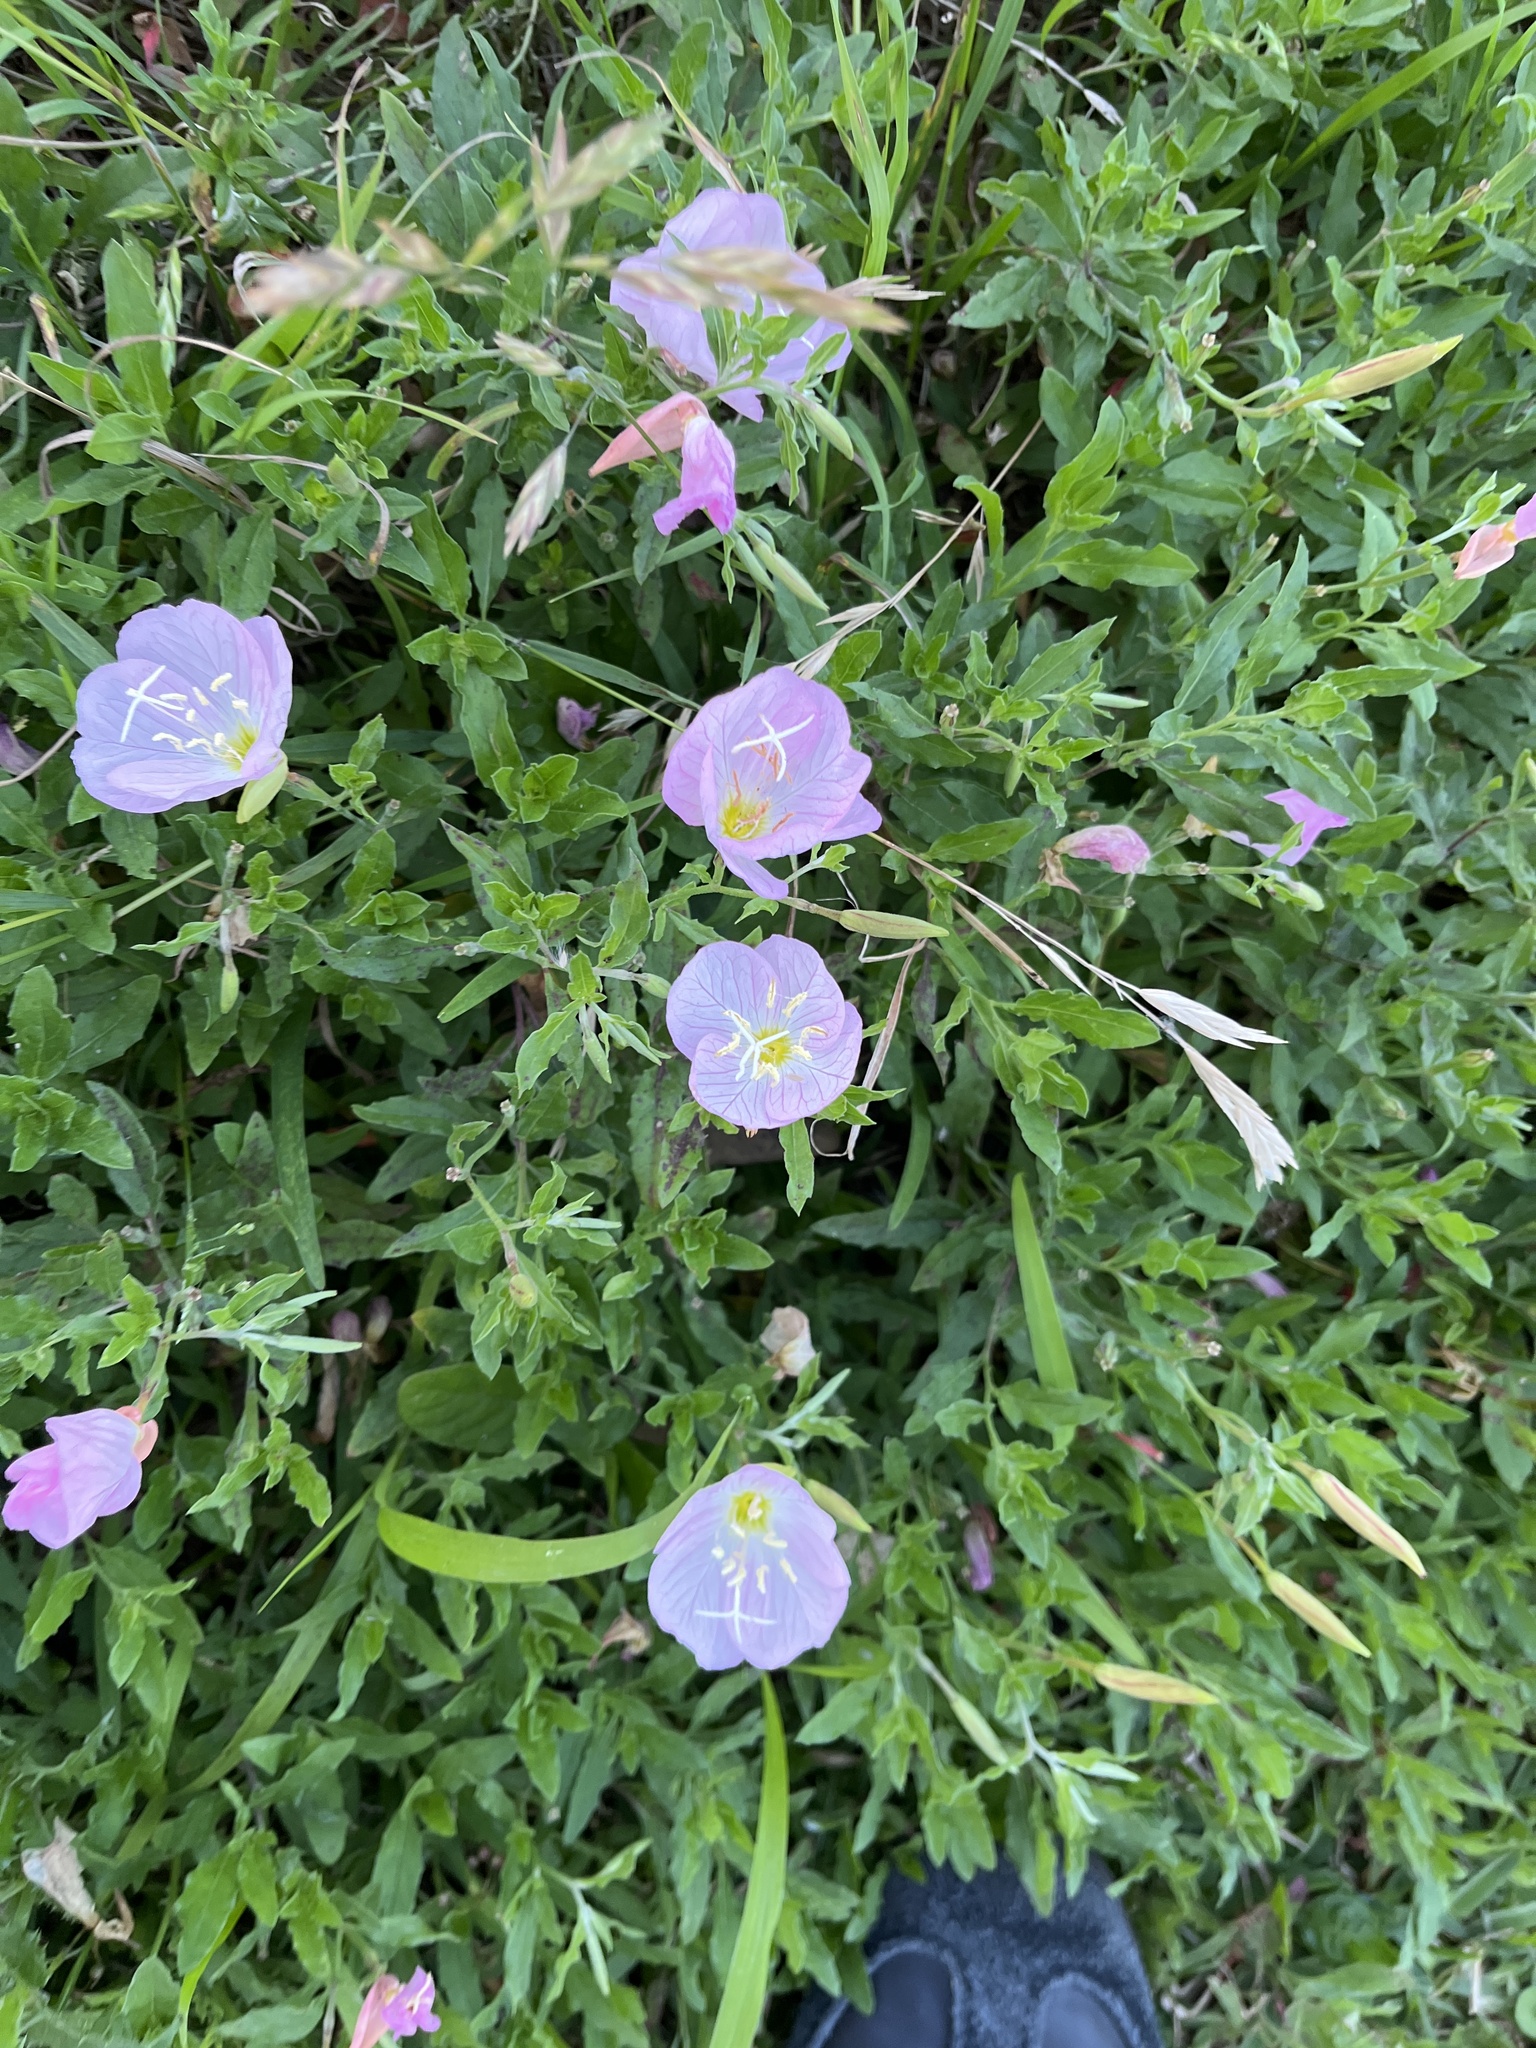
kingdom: Plantae
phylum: Tracheophyta
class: Magnoliopsida
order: Myrtales
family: Onagraceae
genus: Oenothera
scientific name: Oenothera speciosa
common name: White evening-primrose
